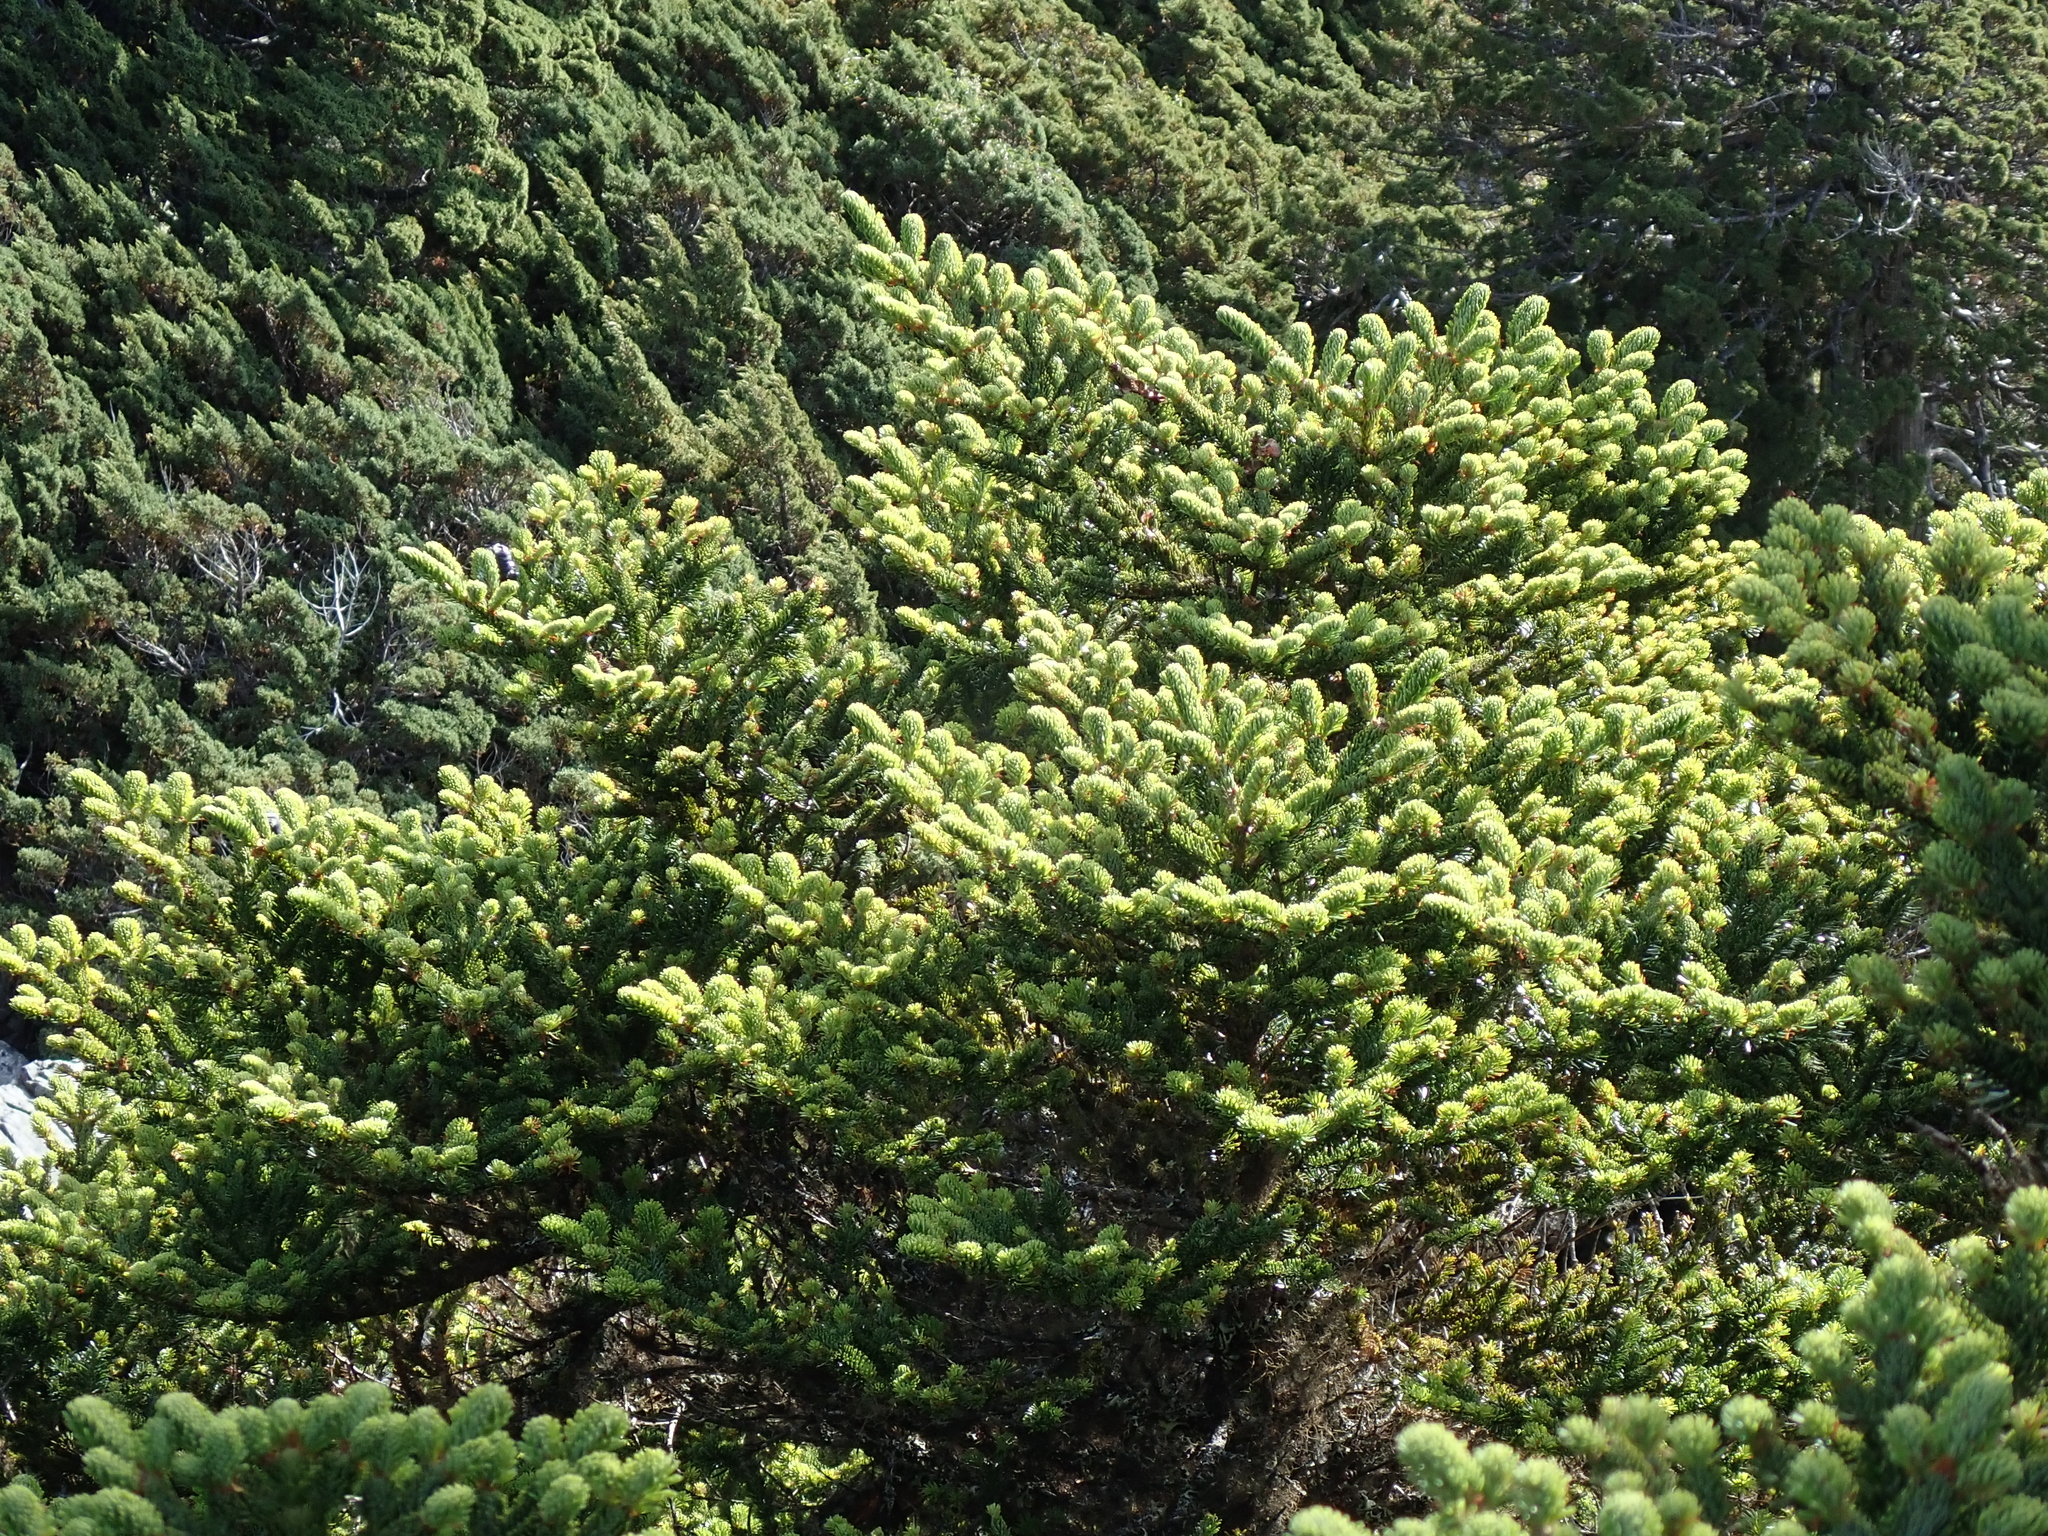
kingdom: Plantae
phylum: Tracheophyta
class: Pinopsida
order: Pinales
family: Pinaceae
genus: Abies
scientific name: Abies kawakamii
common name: Taiwan fir
